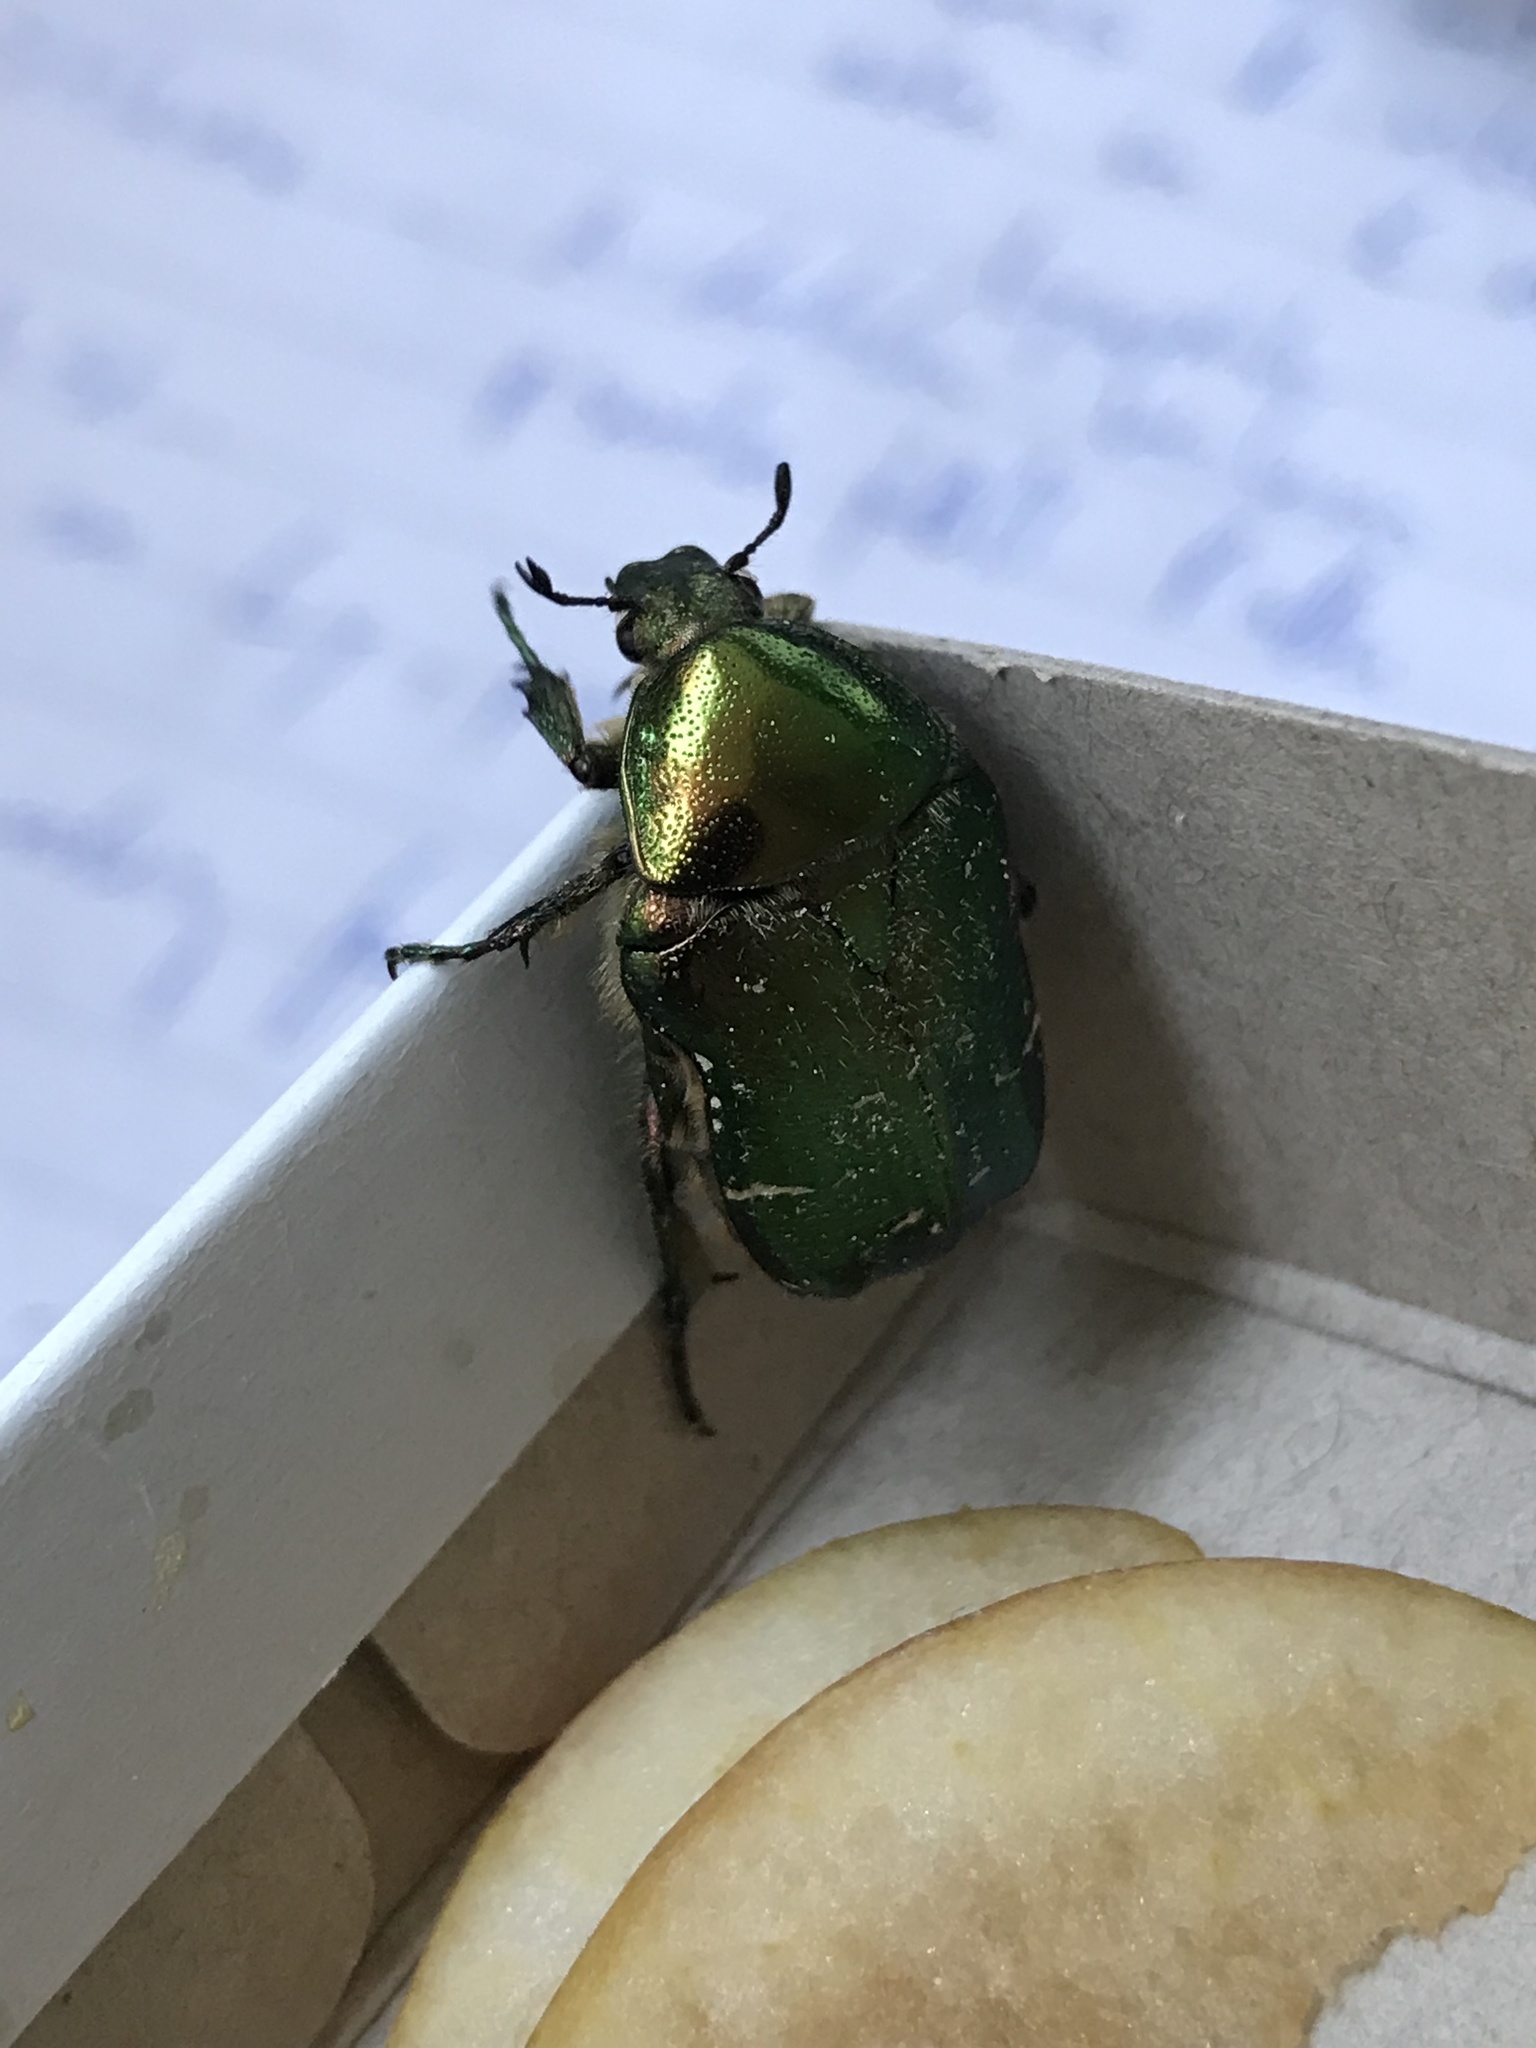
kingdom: Animalia
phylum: Arthropoda
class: Insecta
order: Coleoptera
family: Scarabaeidae
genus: Cetonia
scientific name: Cetonia aurata
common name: Rose chafer
